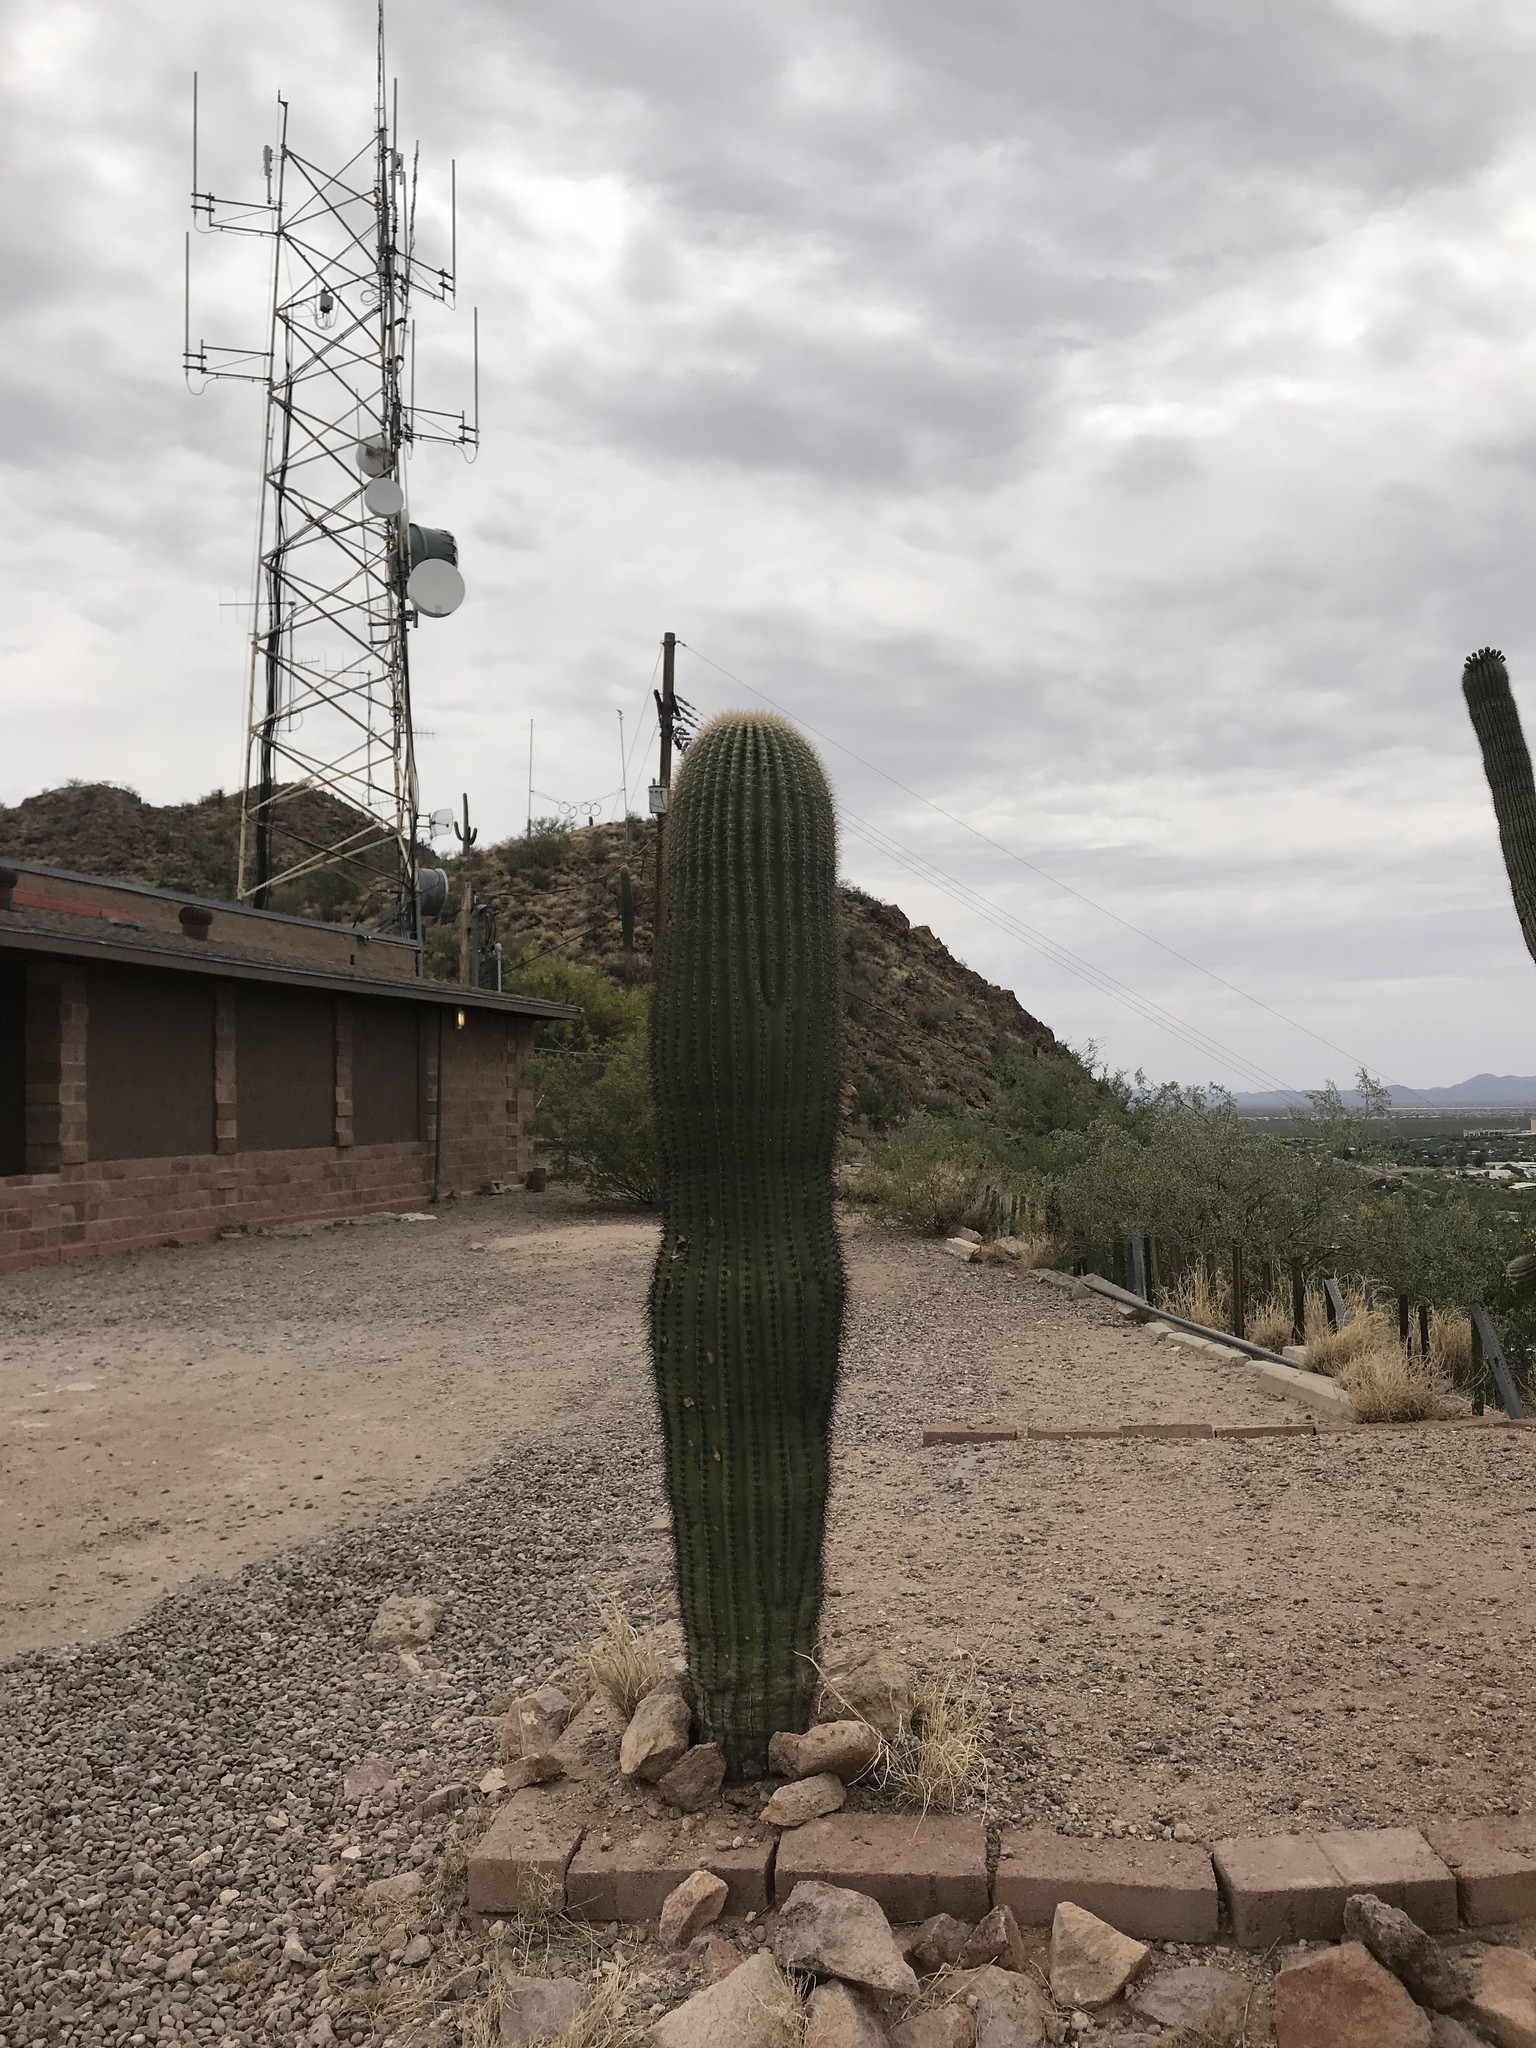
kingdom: Plantae
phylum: Tracheophyta
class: Magnoliopsida
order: Caryophyllales
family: Cactaceae
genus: Carnegiea
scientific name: Carnegiea gigantea
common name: Saguaro
